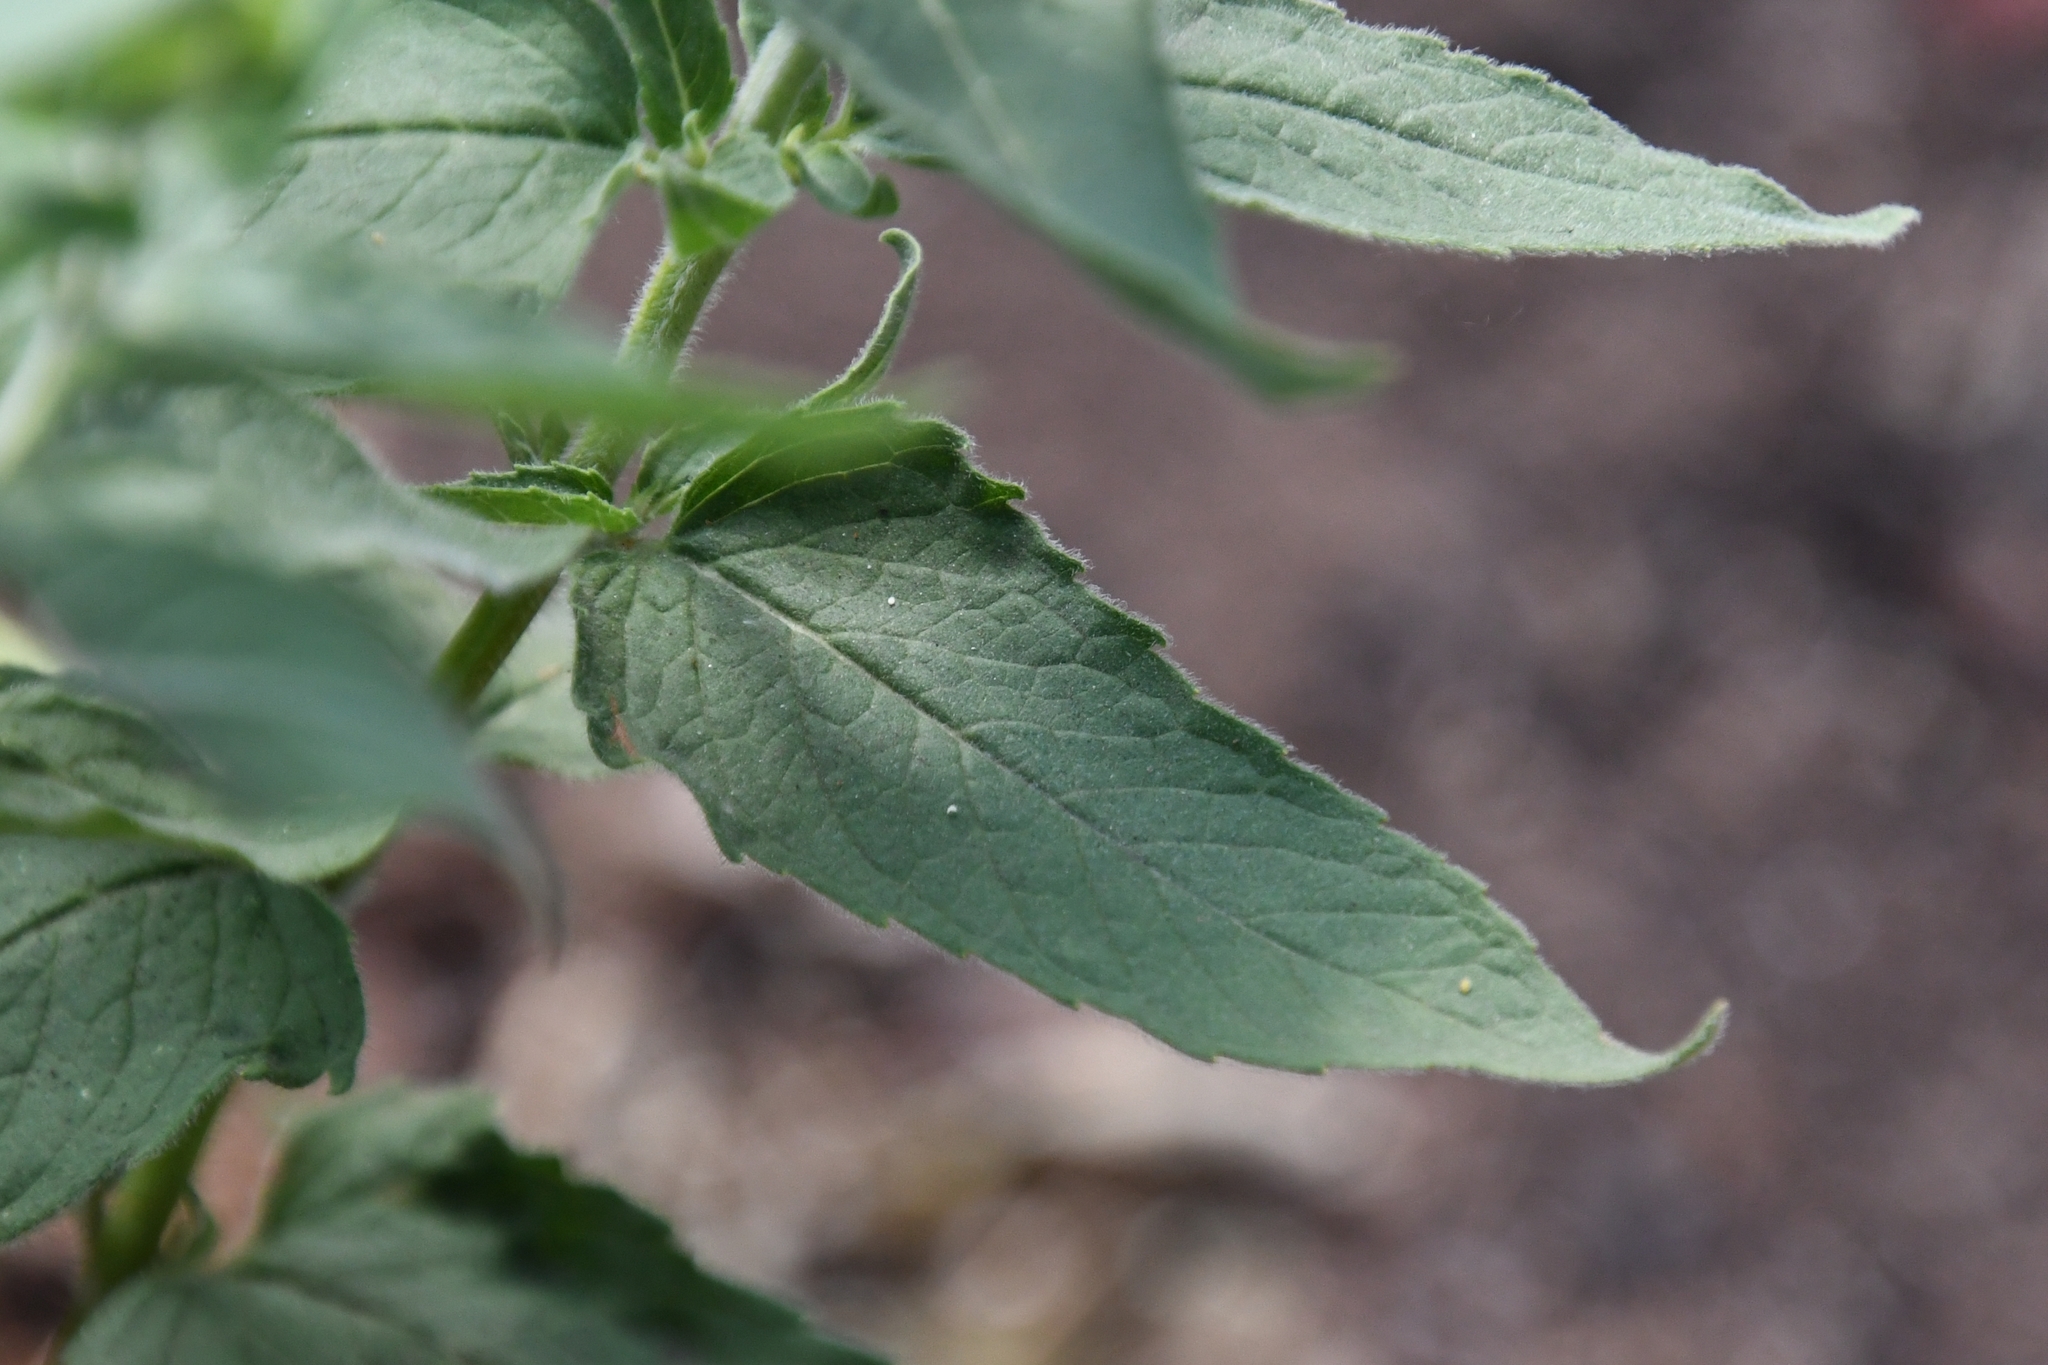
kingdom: Plantae
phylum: Tracheophyta
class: Magnoliopsida
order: Lamiales
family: Lamiaceae
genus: Monarda
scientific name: Monarda fistulosa
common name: Purple beebalm
